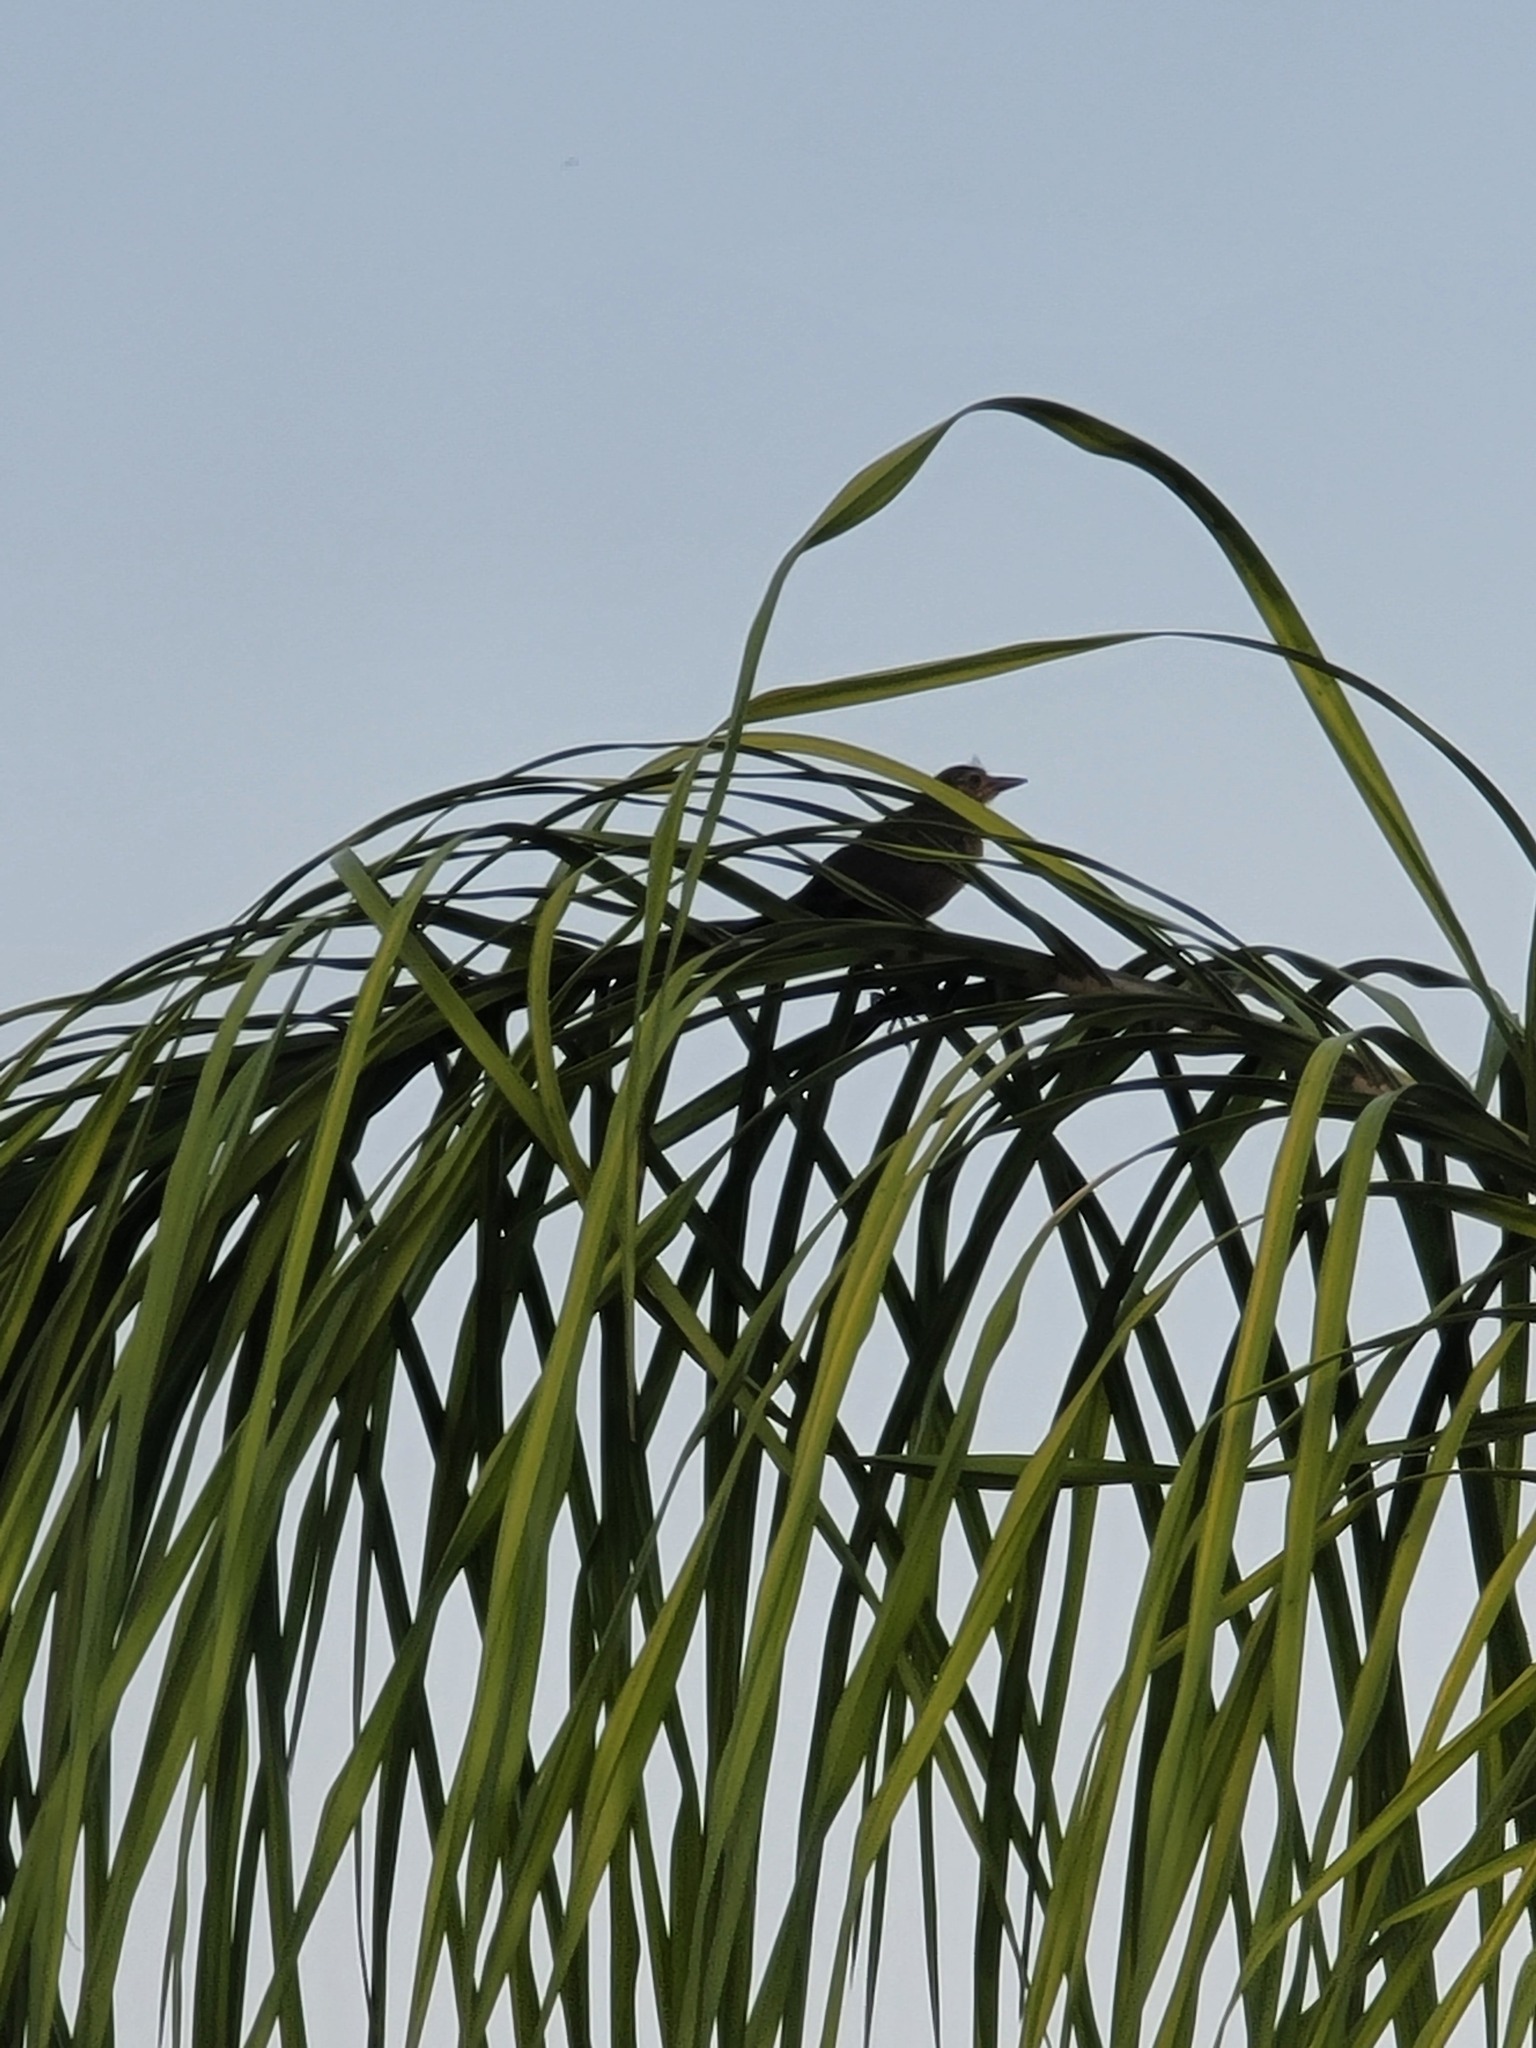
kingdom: Animalia
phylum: Chordata
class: Aves
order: Passeriformes
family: Icteridae
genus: Quiscalus
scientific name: Quiscalus mexicanus
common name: Great-tailed grackle
